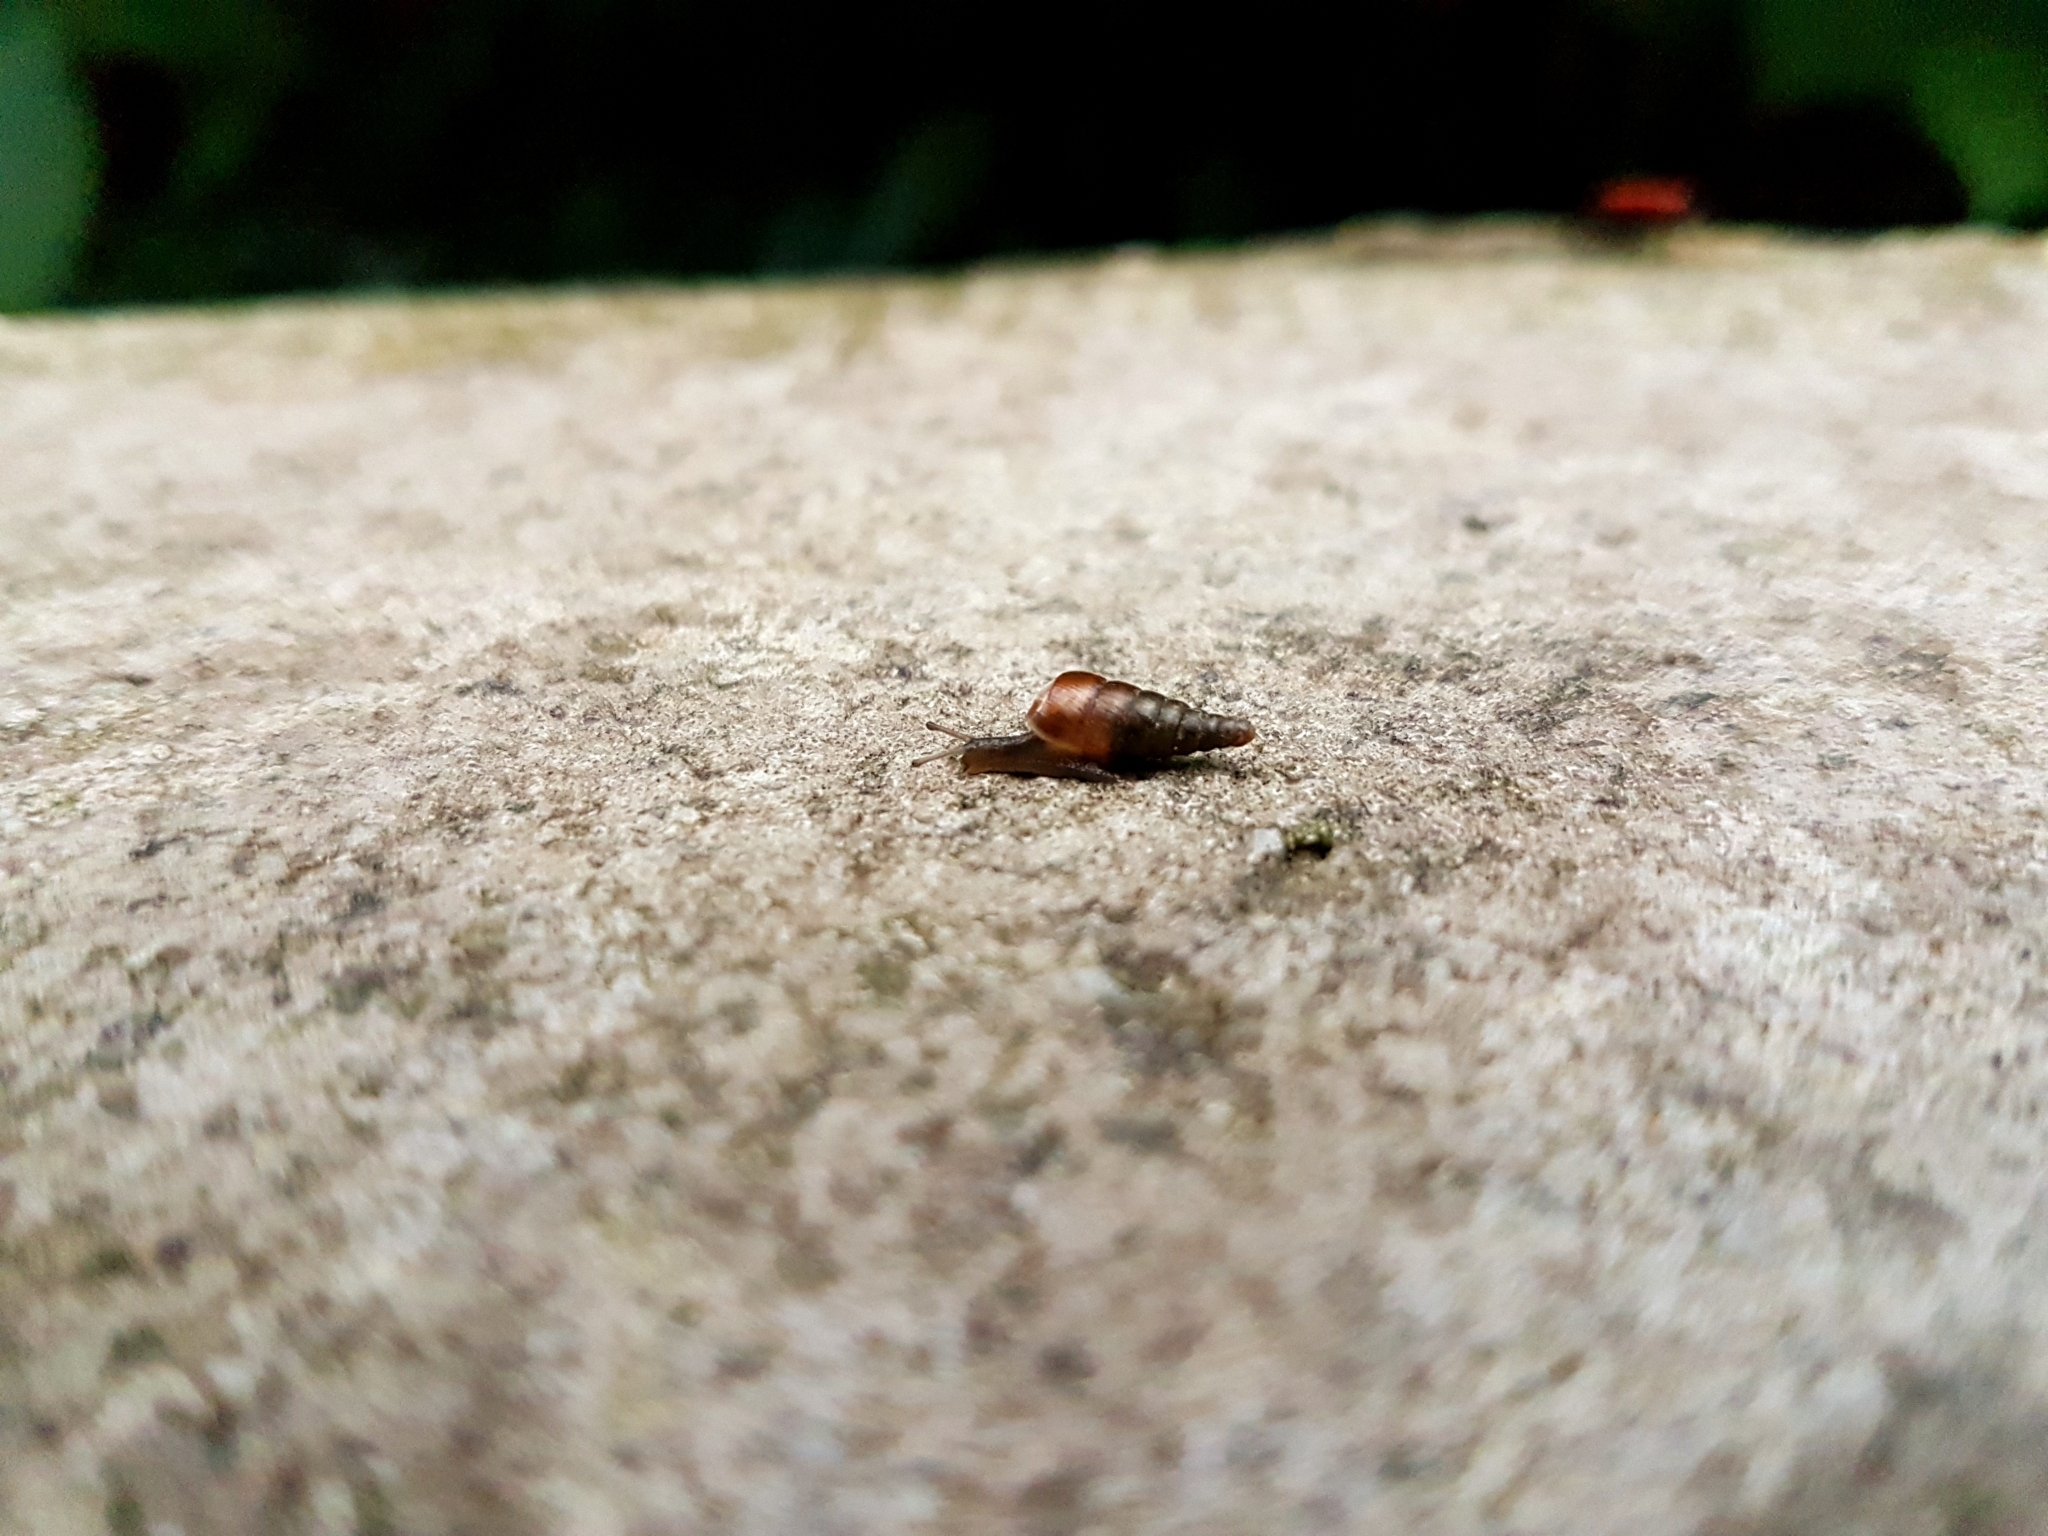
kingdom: Animalia
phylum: Mollusca
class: Gastropoda
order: Stylommatophora
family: Clausiliidae
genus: Cochlodina
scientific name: Cochlodina laminata
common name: Plaited door snail
